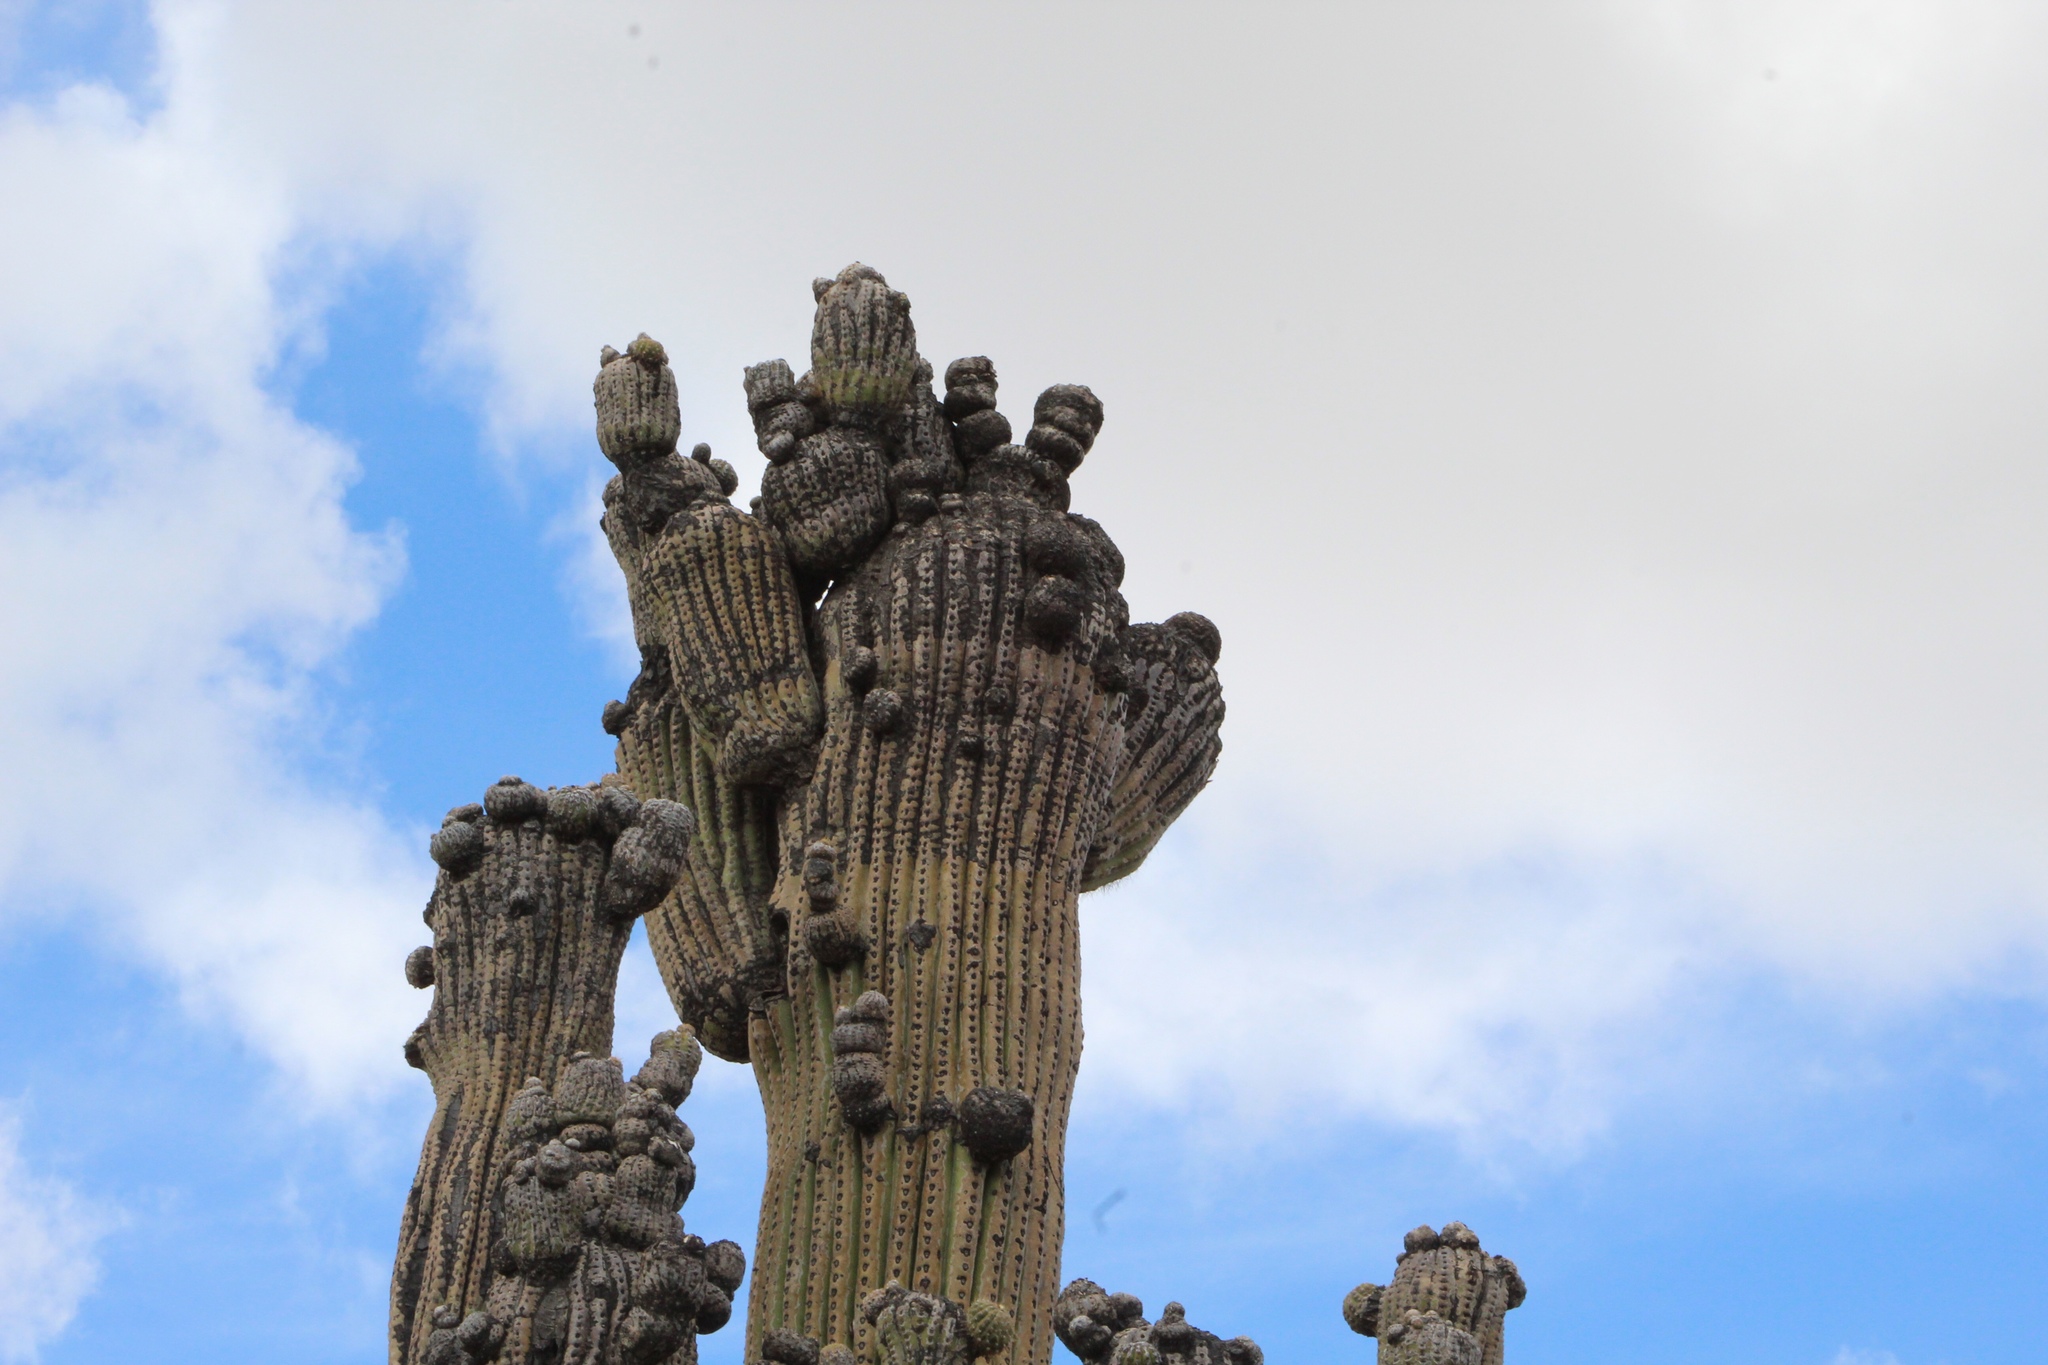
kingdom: Plantae
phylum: Tracheophyta
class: Magnoliopsida
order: Caryophyllales
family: Cactaceae
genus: Carnegiea
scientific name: Carnegiea gigantea
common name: Saguaro
